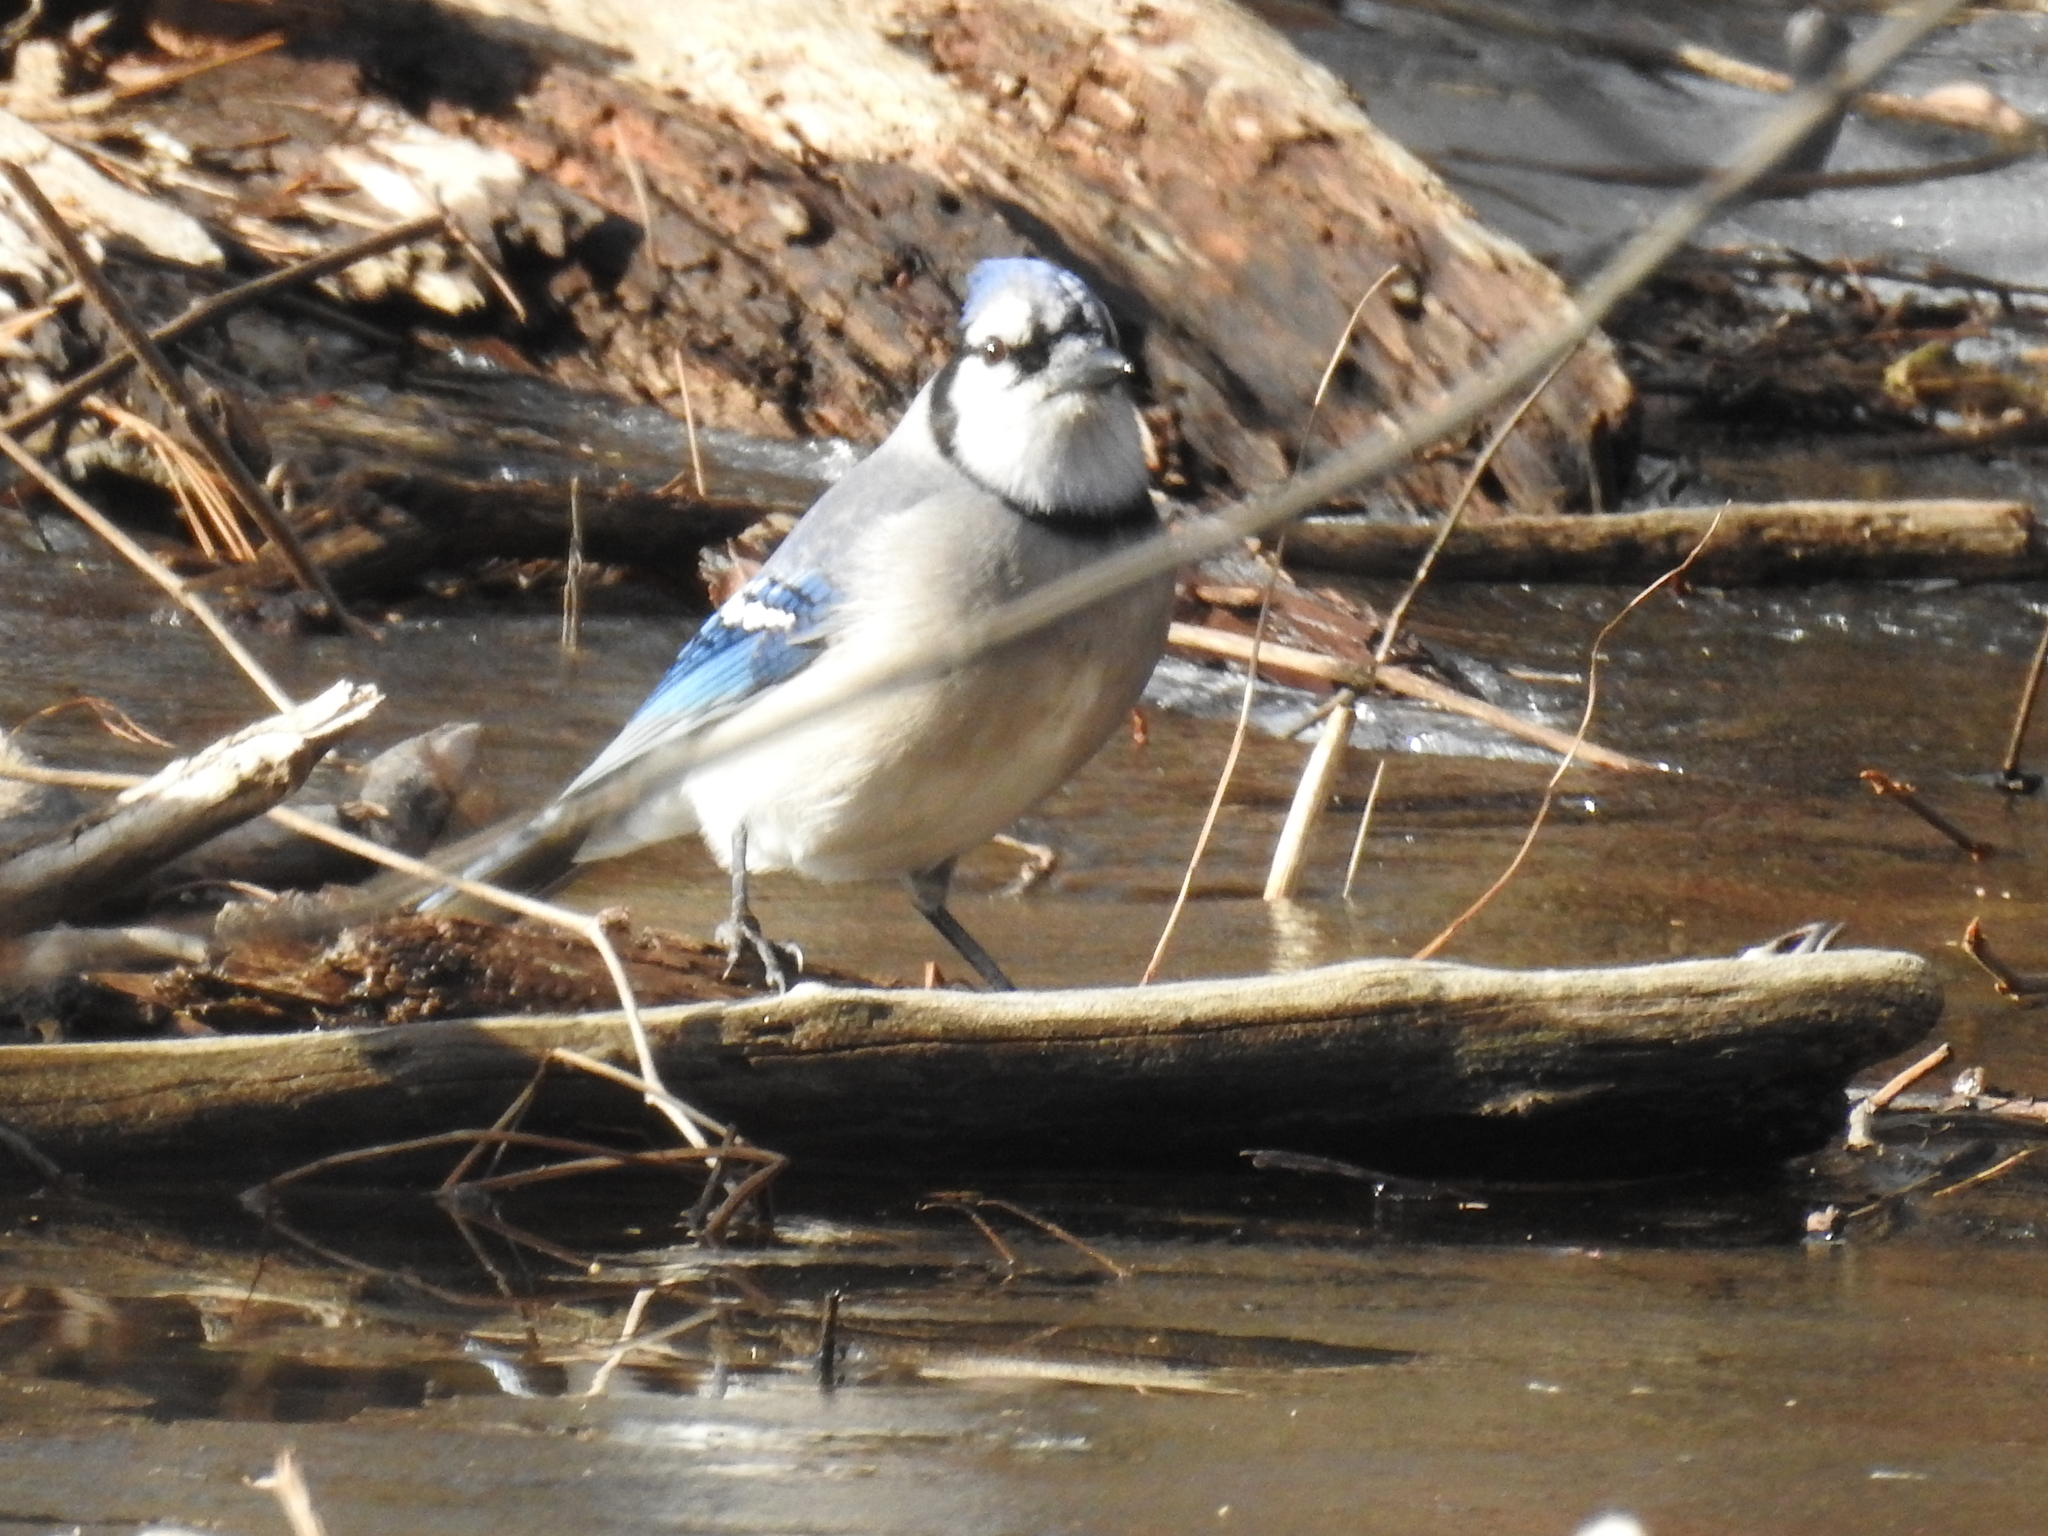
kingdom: Animalia
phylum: Chordata
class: Aves
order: Passeriformes
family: Corvidae
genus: Cyanocitta
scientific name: Cyanocitta cristata
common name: Blue jay
